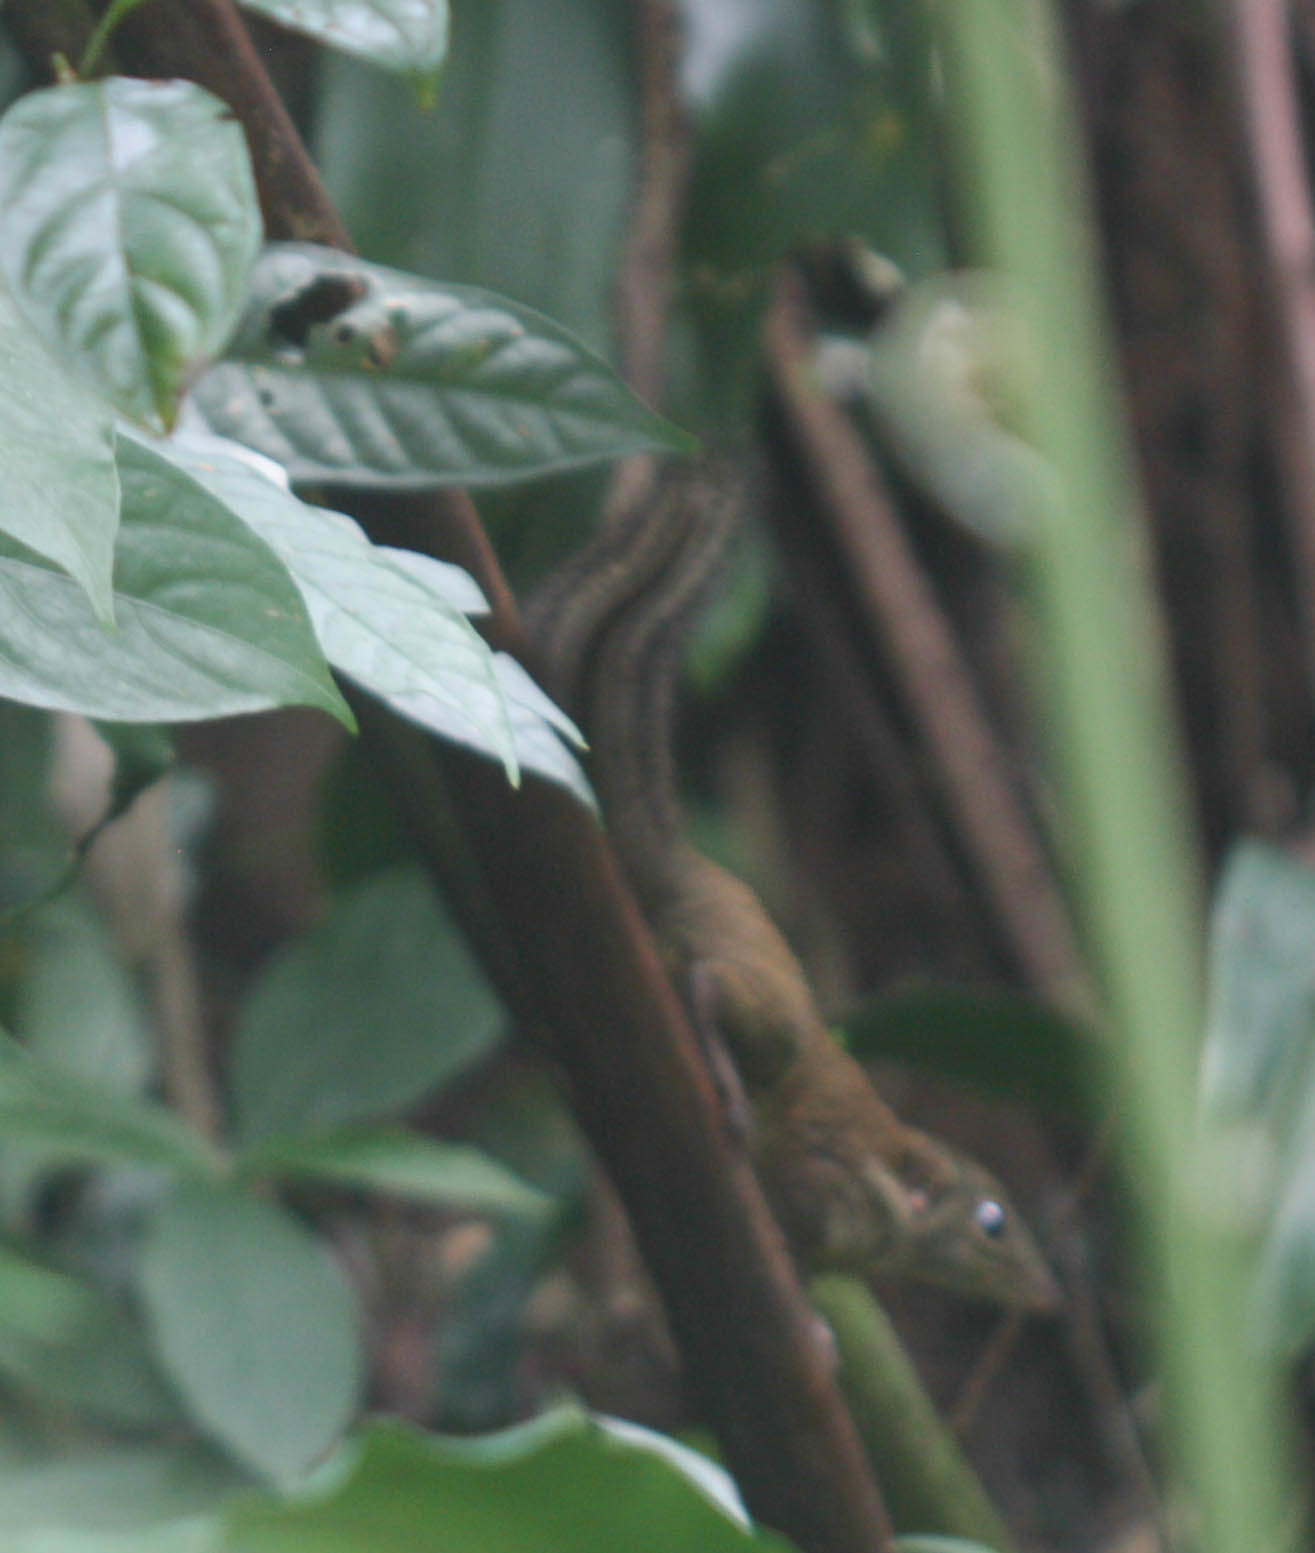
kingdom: Animalia
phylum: Chordata
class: Mammalia
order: Scandentia
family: Tupaiidae
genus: Tupaia
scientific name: Tupaia glis
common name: Common treeshrew
